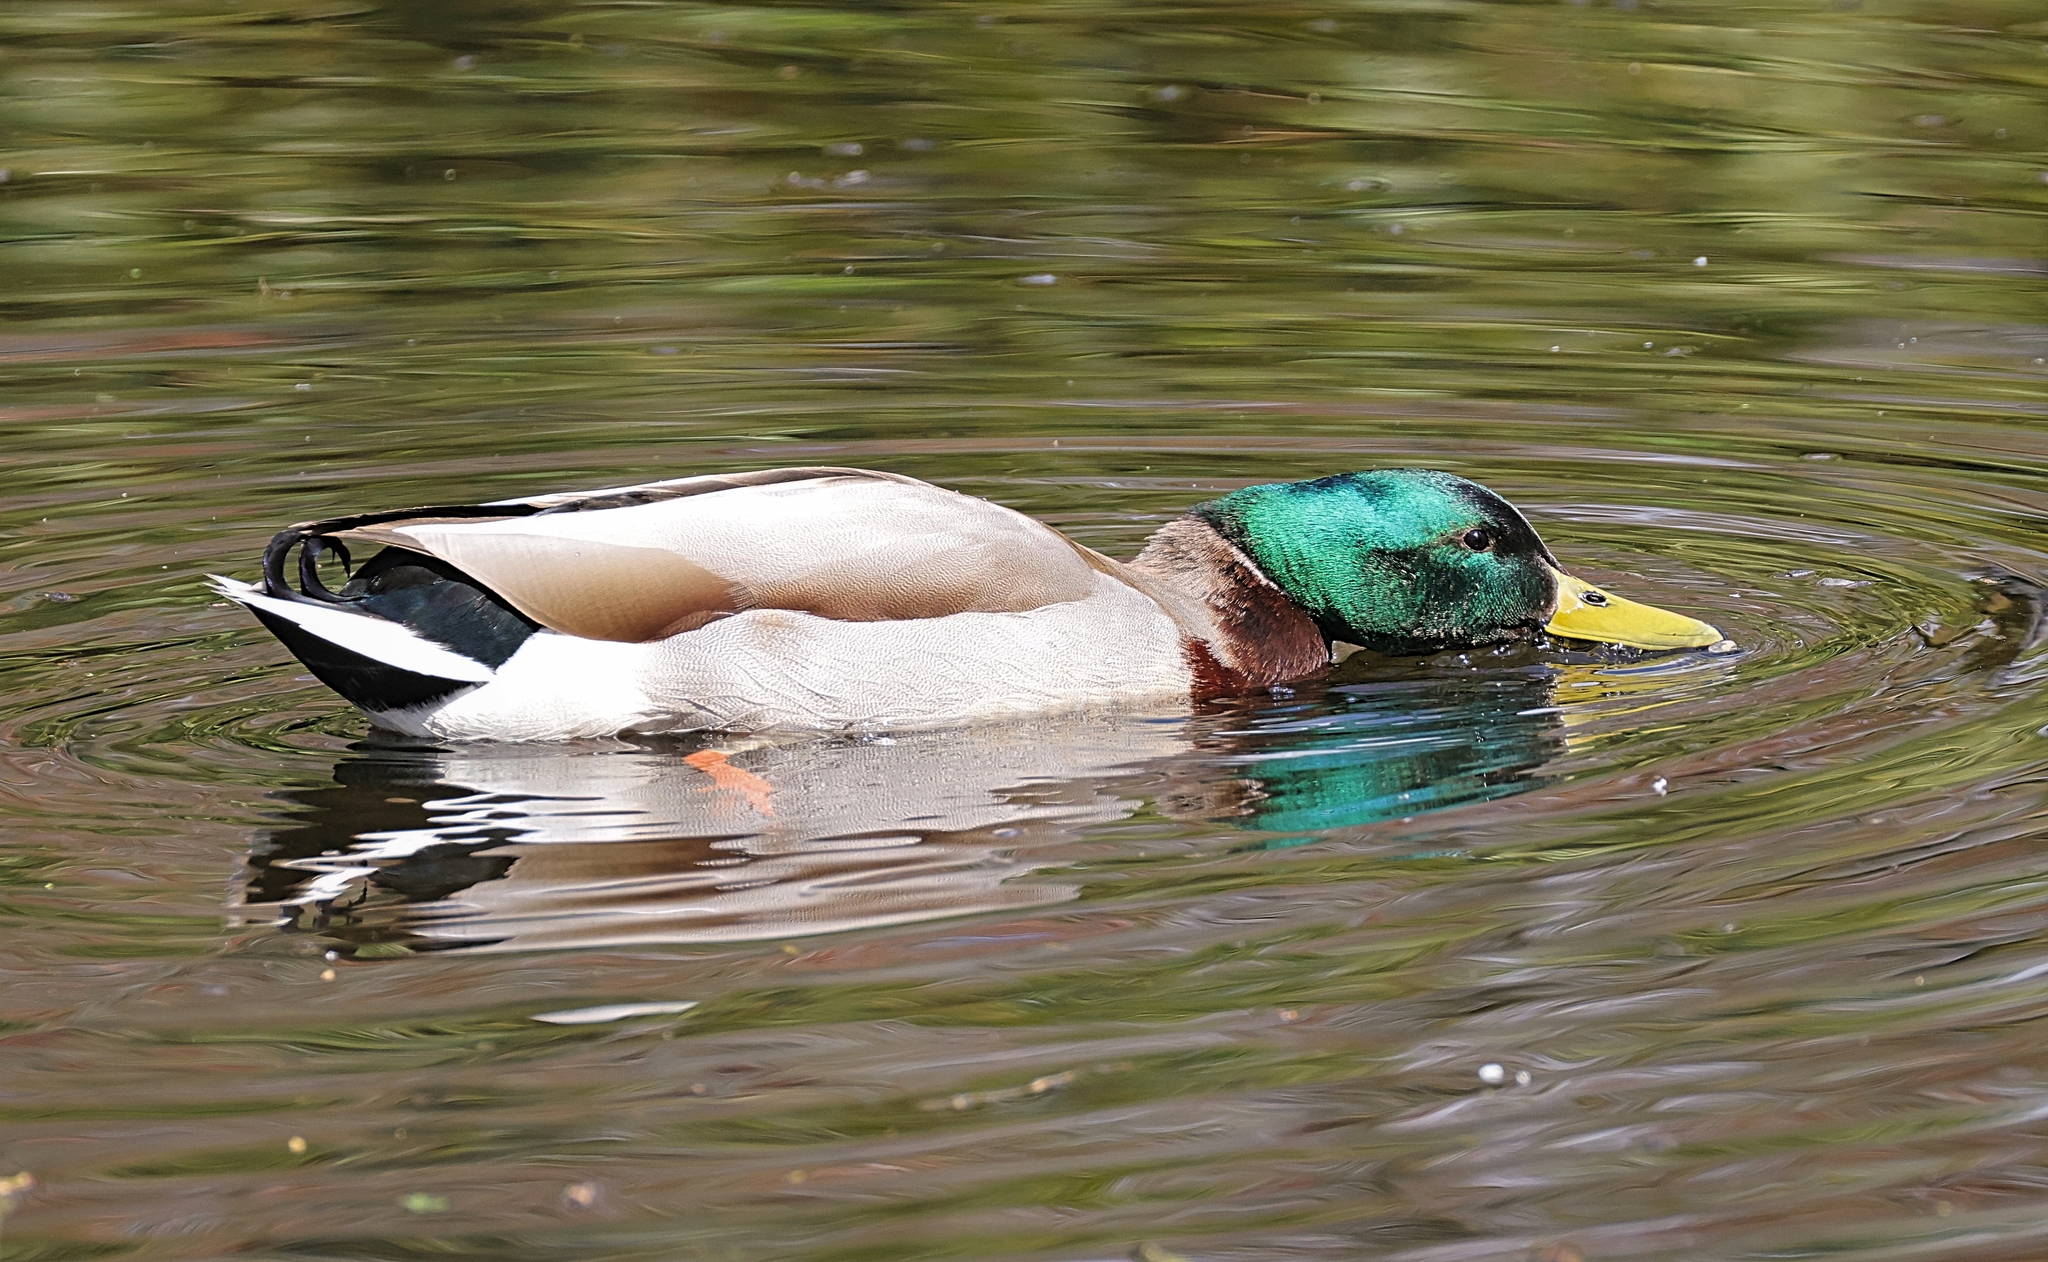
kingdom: Animalia
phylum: Chordata
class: Aves
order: Anseriformes
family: Anatidae
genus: Anas
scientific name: Anas platyrhynchos
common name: Mallard
